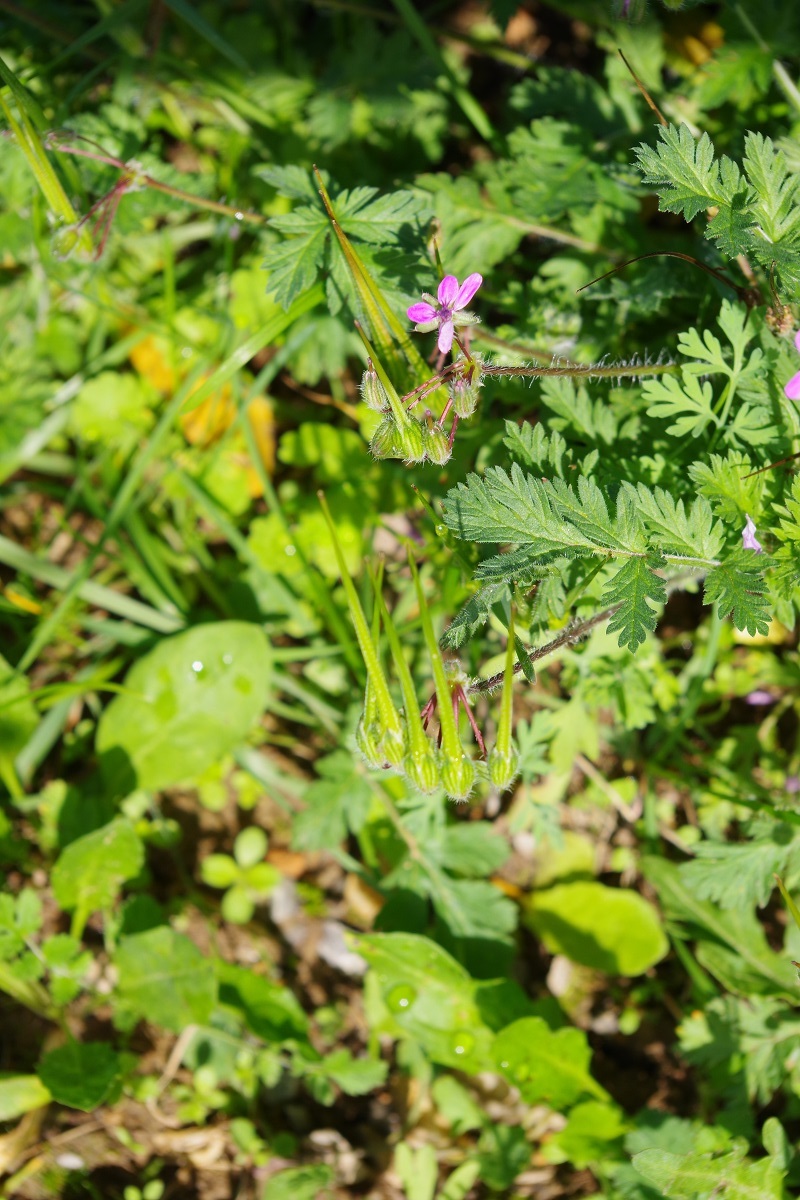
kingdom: Plantae
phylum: Tracheophyta
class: Magnoliopsida
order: Geraniales
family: Geraniaceae
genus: Erodium
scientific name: Erodium cicutarium
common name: Common stork's-bill
